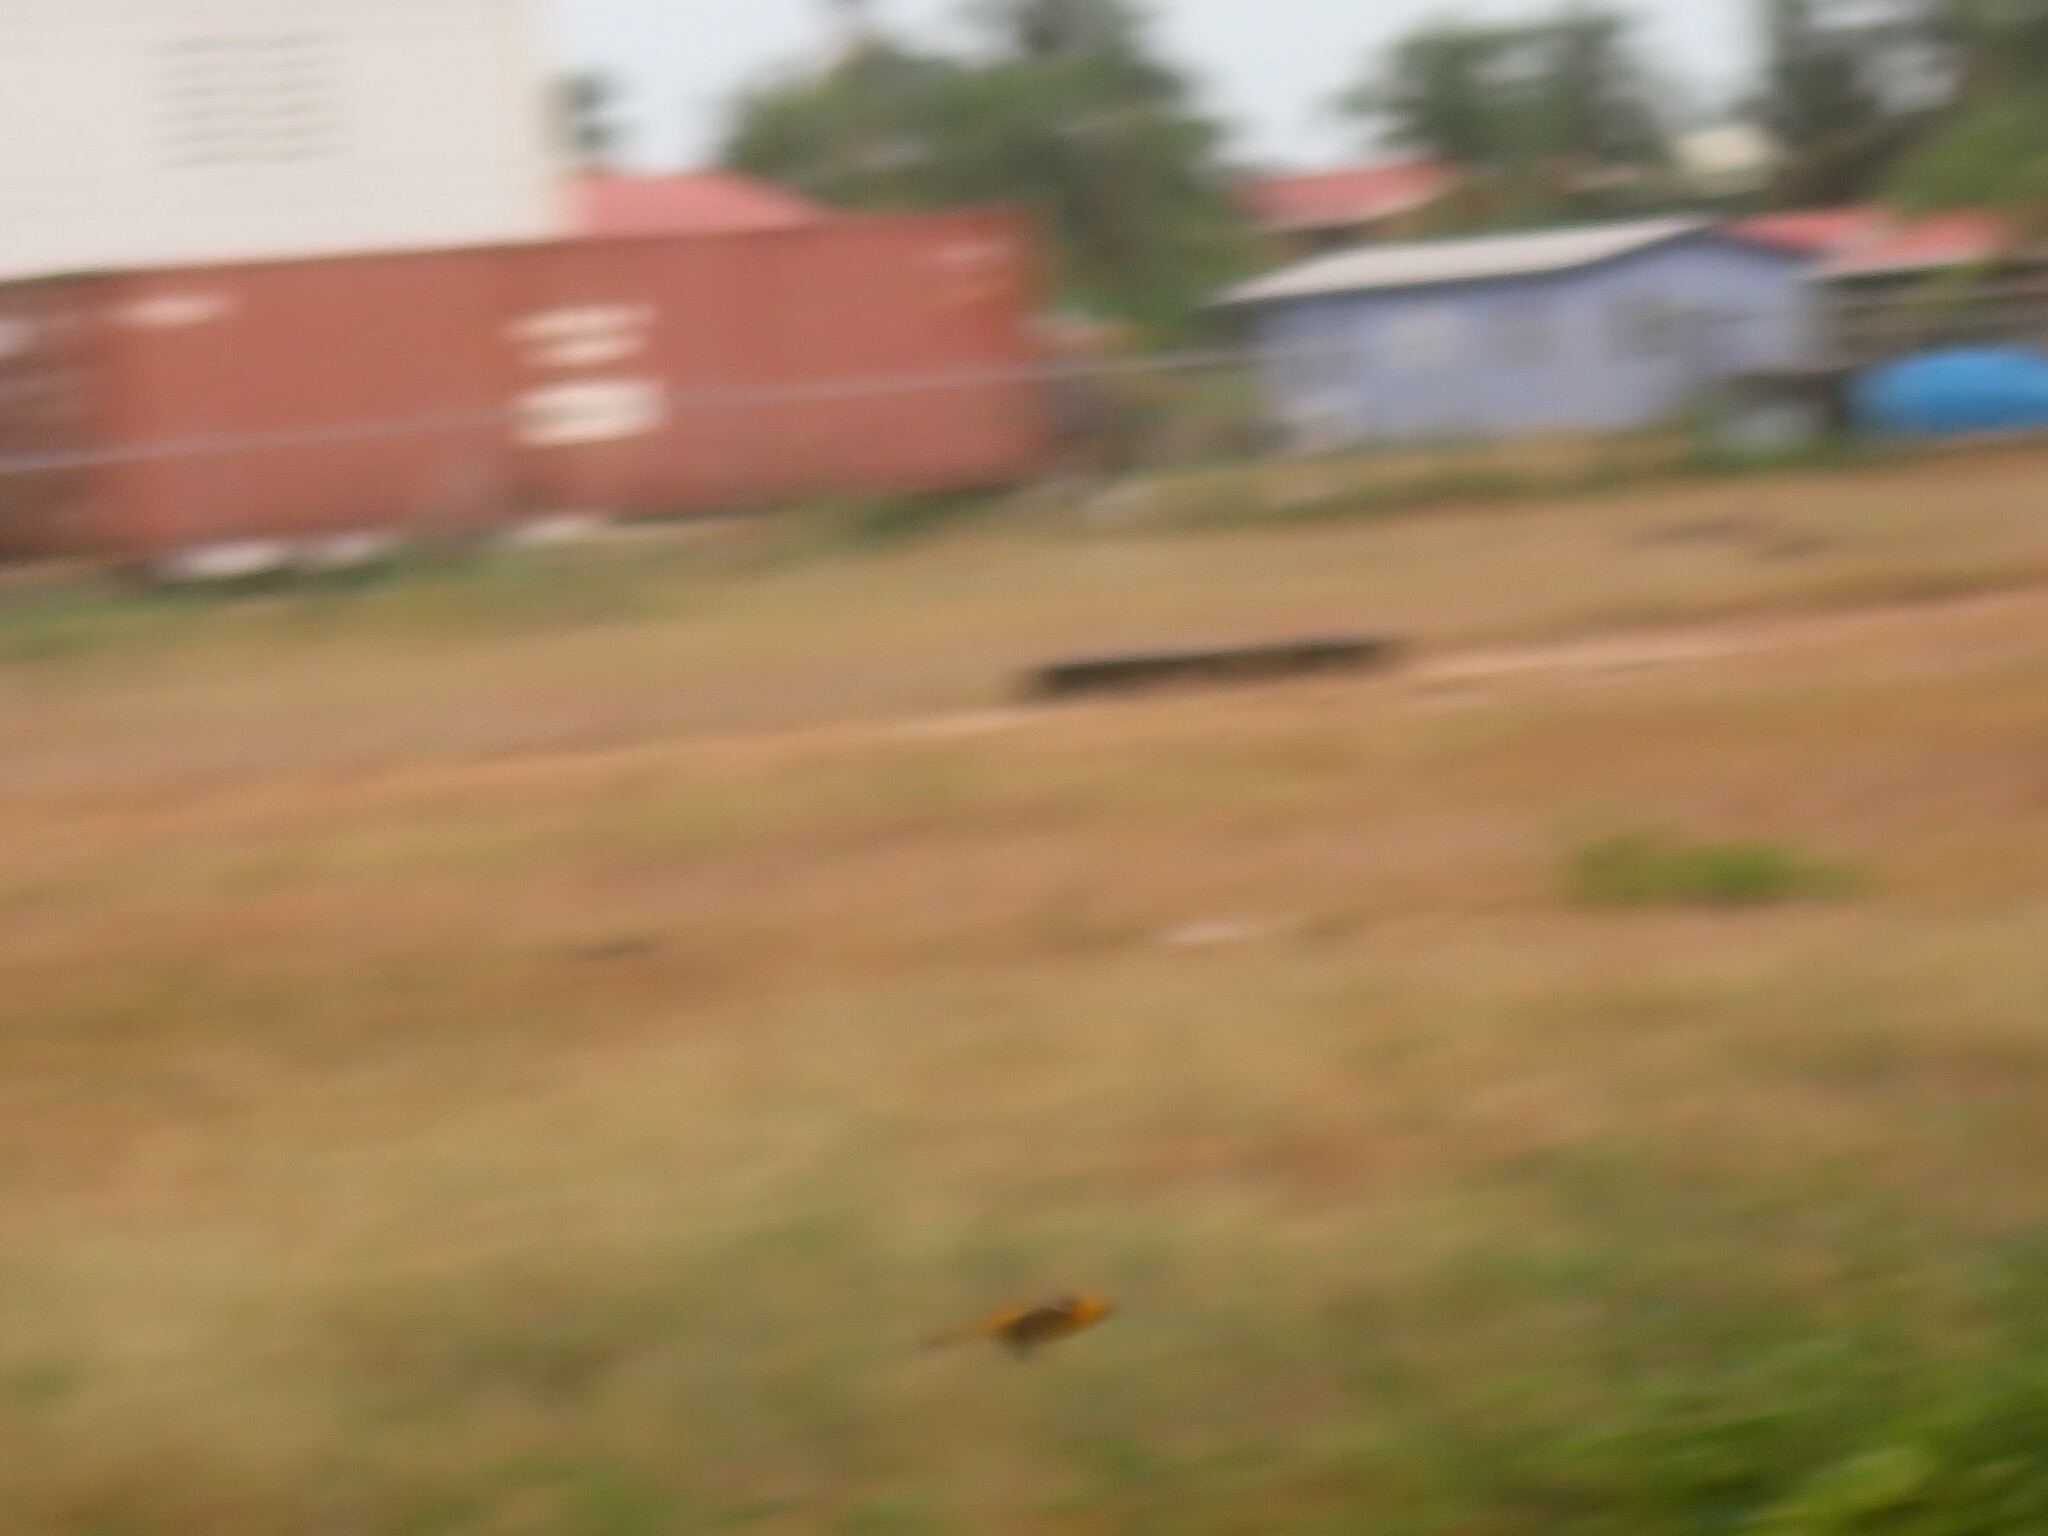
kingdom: Animalia
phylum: Chordata
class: Aves
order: Passeriformes
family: Icteridae
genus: Icterus
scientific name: Icterus cucullatus
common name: Hooded oriole
